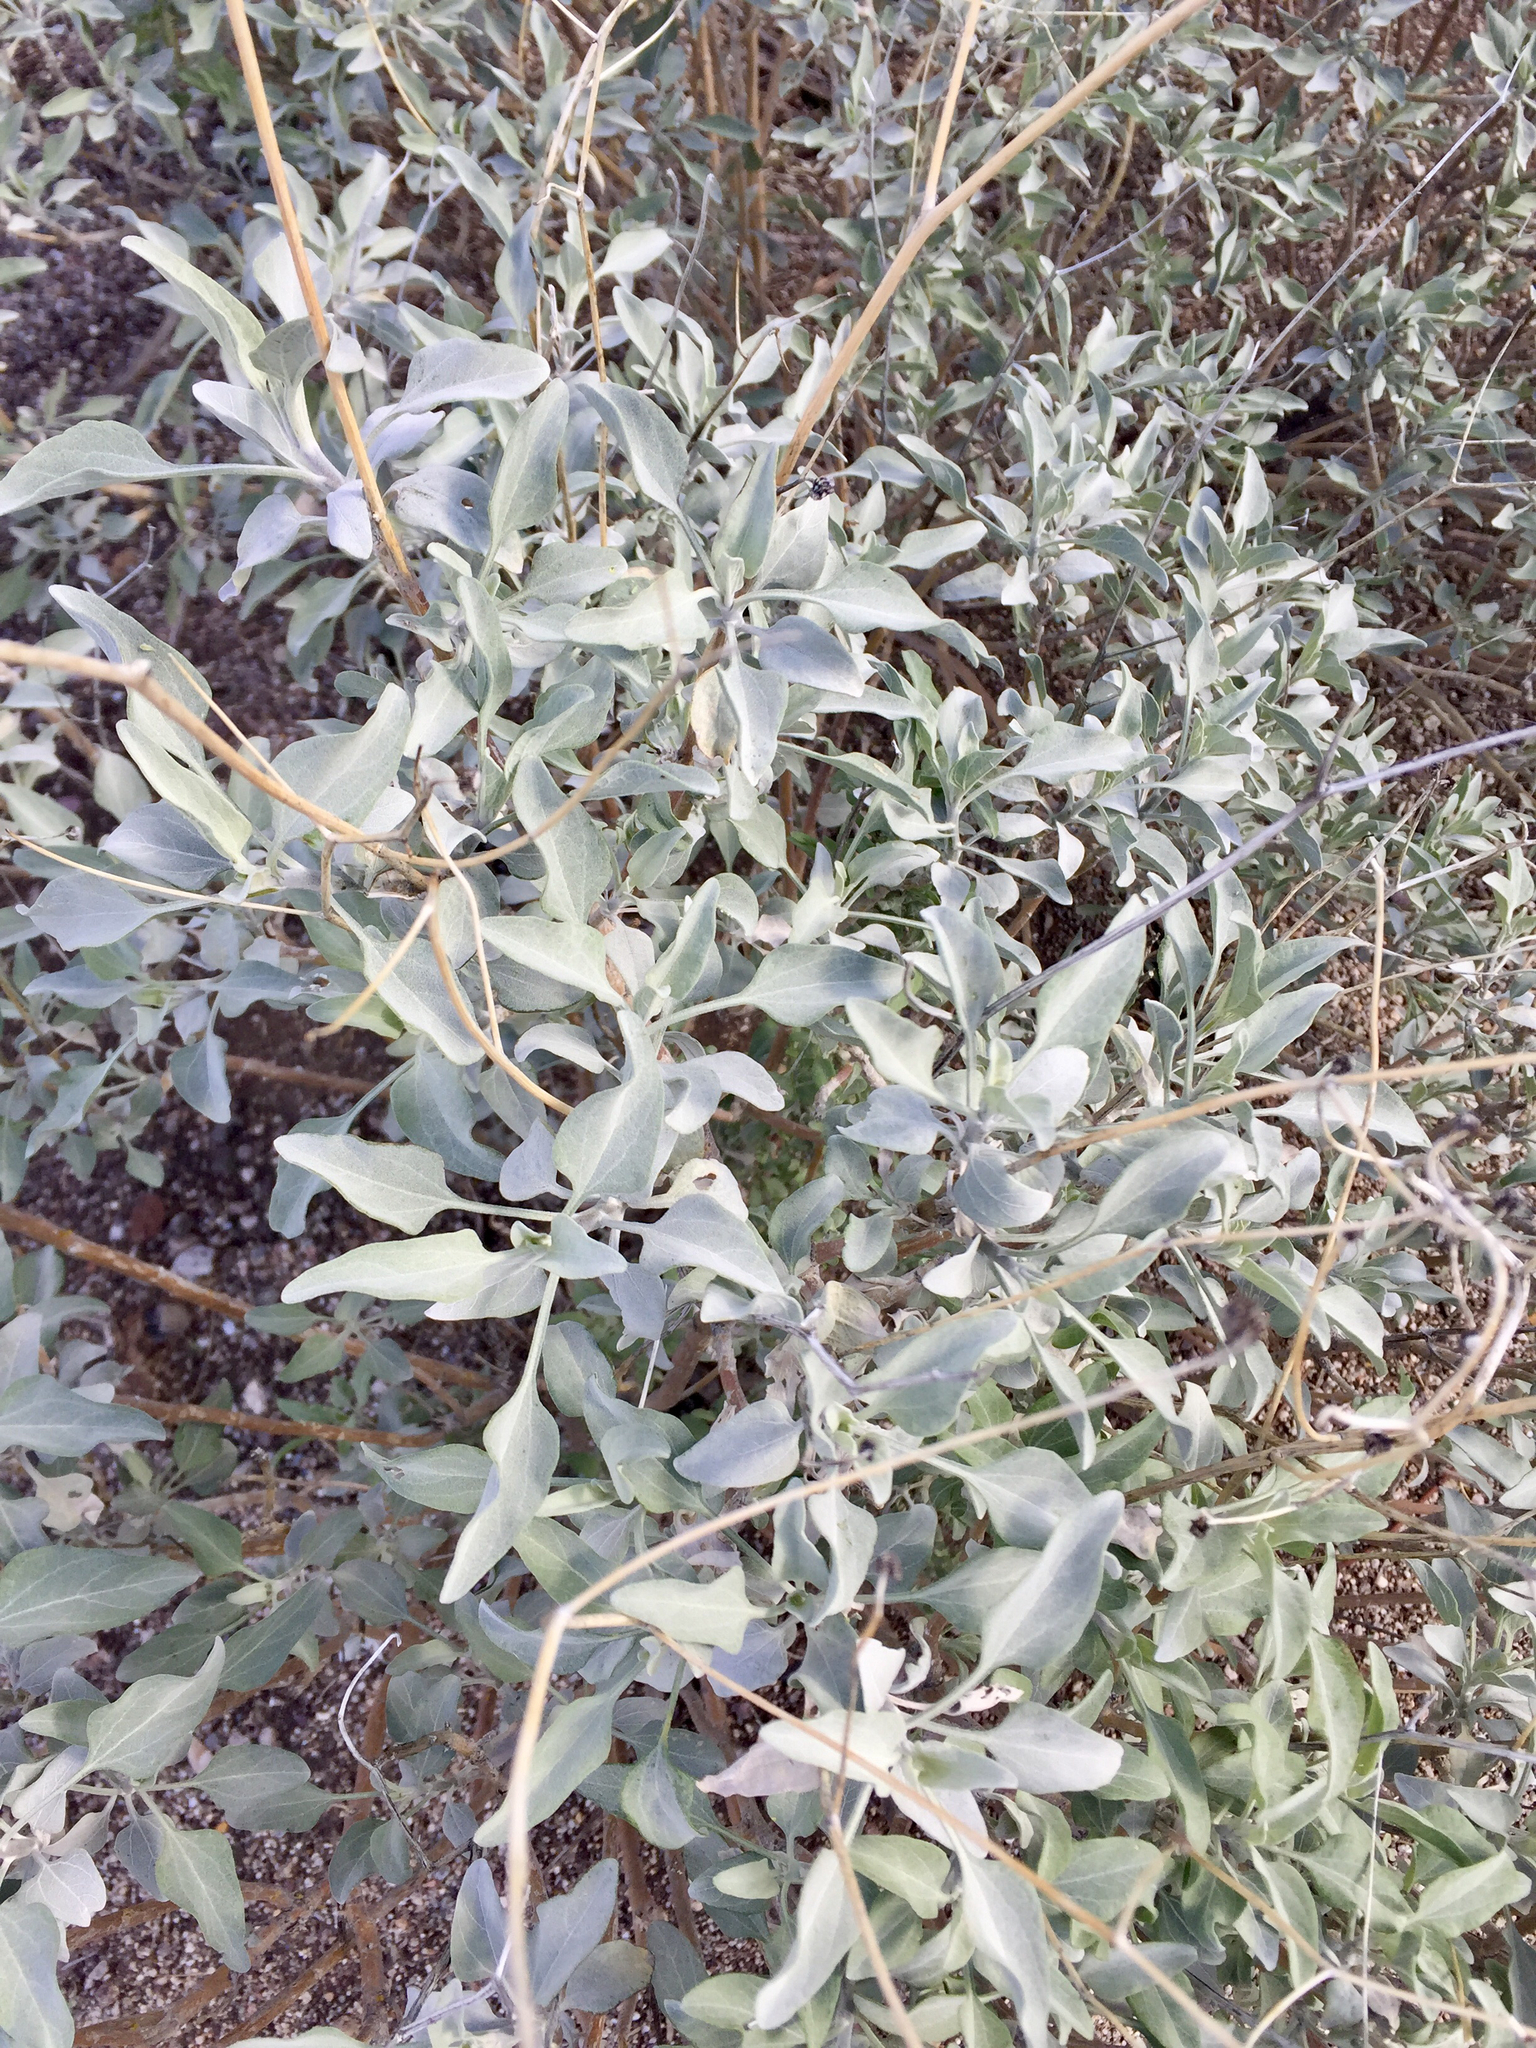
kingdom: Plantae
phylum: Tracheophyta
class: Magnoliopsida
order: Asterales
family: Asteraceae
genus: Encelia
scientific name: Encelia farinosa
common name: Brittlebush
